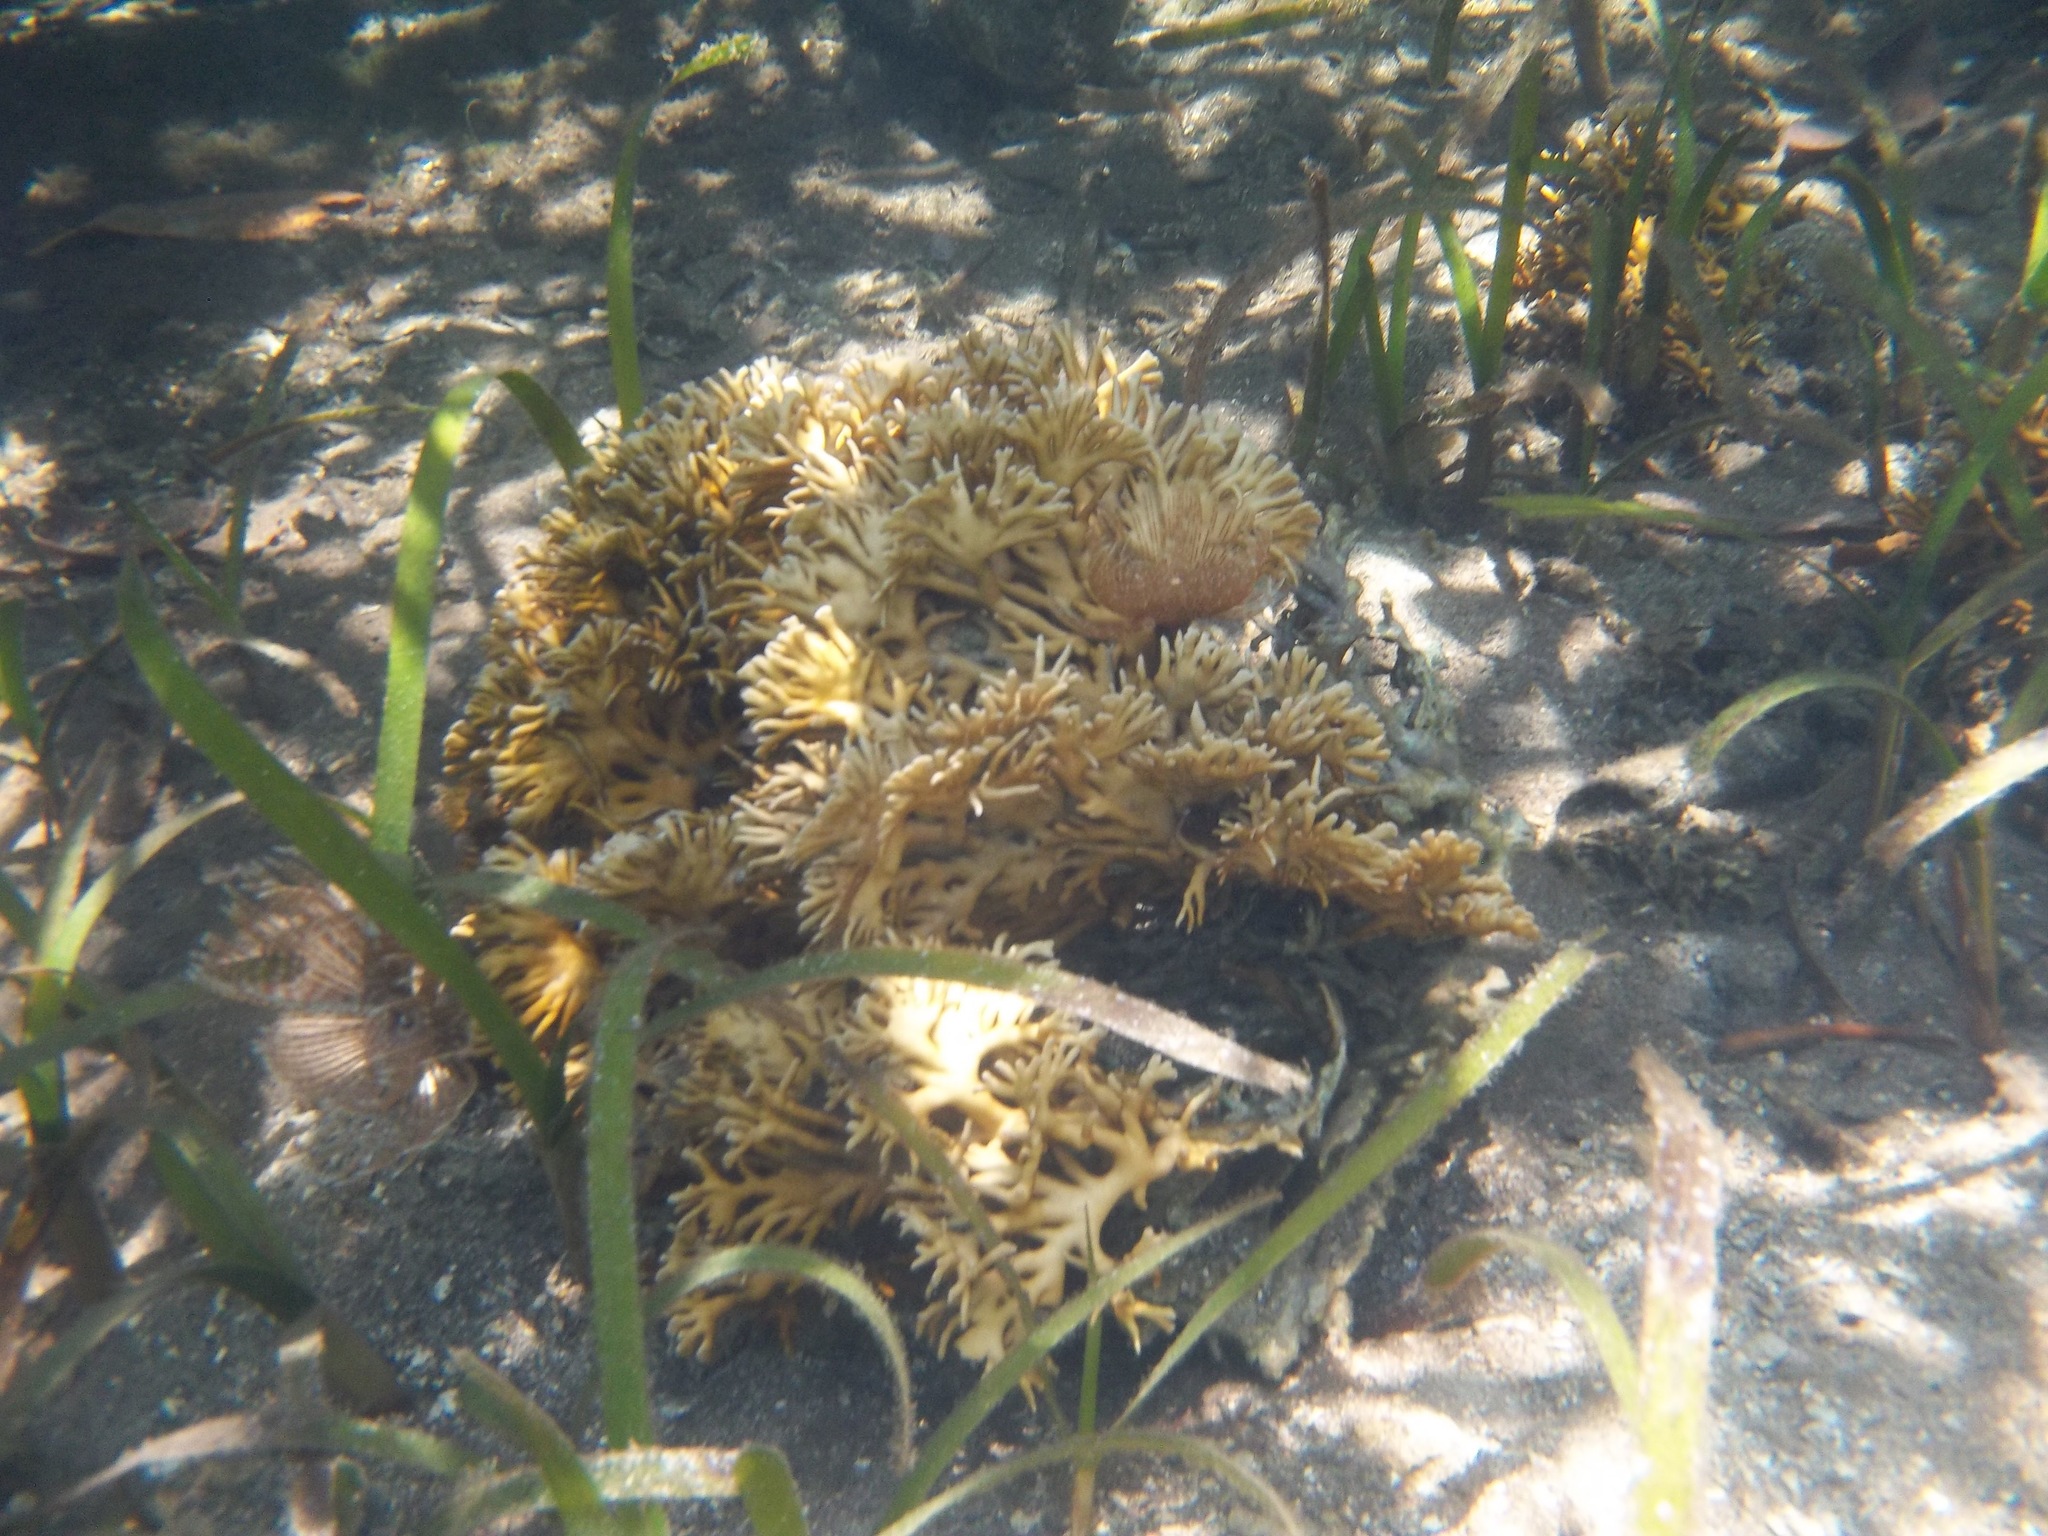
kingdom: Animalia
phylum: Cnidaria
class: Hydrozoa
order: Anthoathecata
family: Milleporidae
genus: Millepora
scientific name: Millepora alcicornis
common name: Branching fire coral
